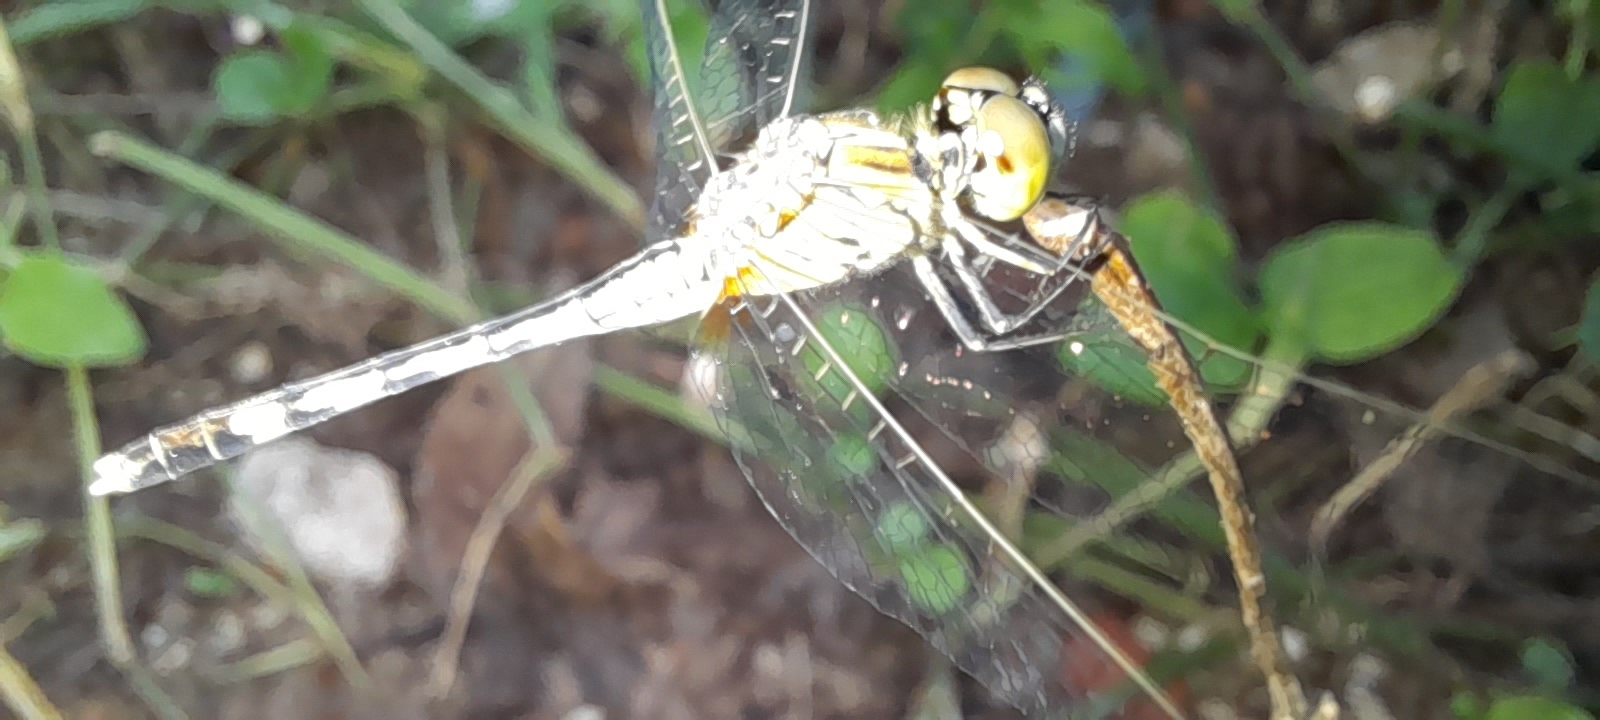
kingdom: Animalia
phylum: Arthropoda
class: Insecta
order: Odonata
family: Libellulidae
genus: Diplacodes
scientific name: Diplacodes trivialis
